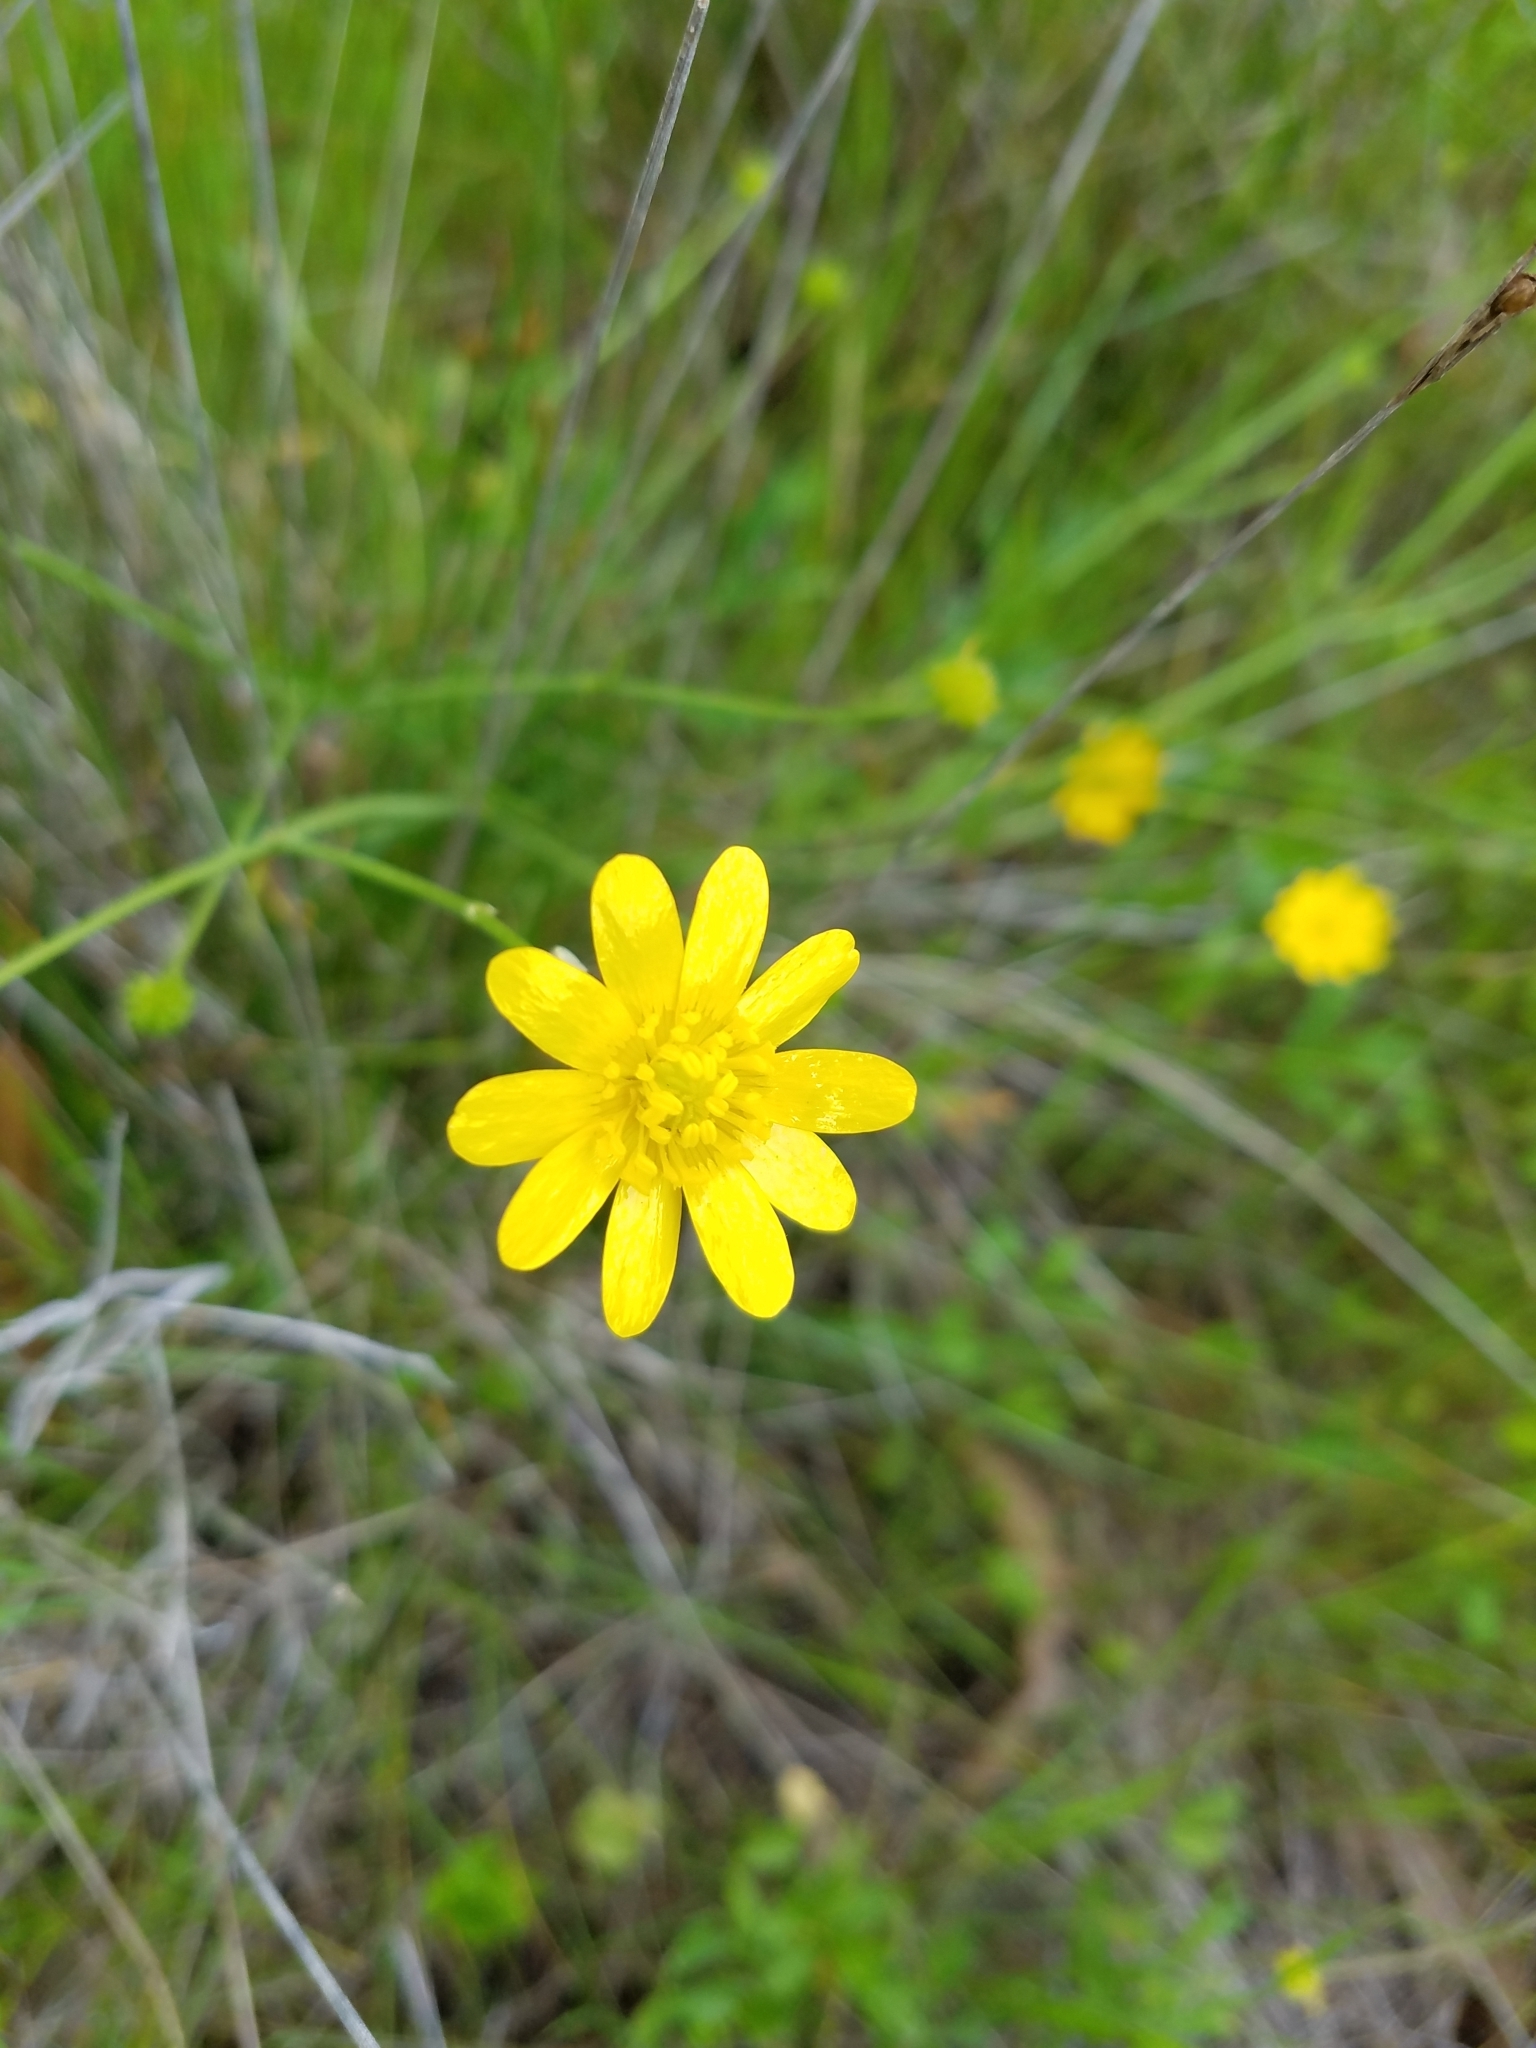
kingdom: Plantae
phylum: Tracheophyta
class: Magnoliopsida
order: Ranunculales
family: Ranunculaceae
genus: Ranunculus
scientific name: Ranunculus californicus
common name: California buttercup
